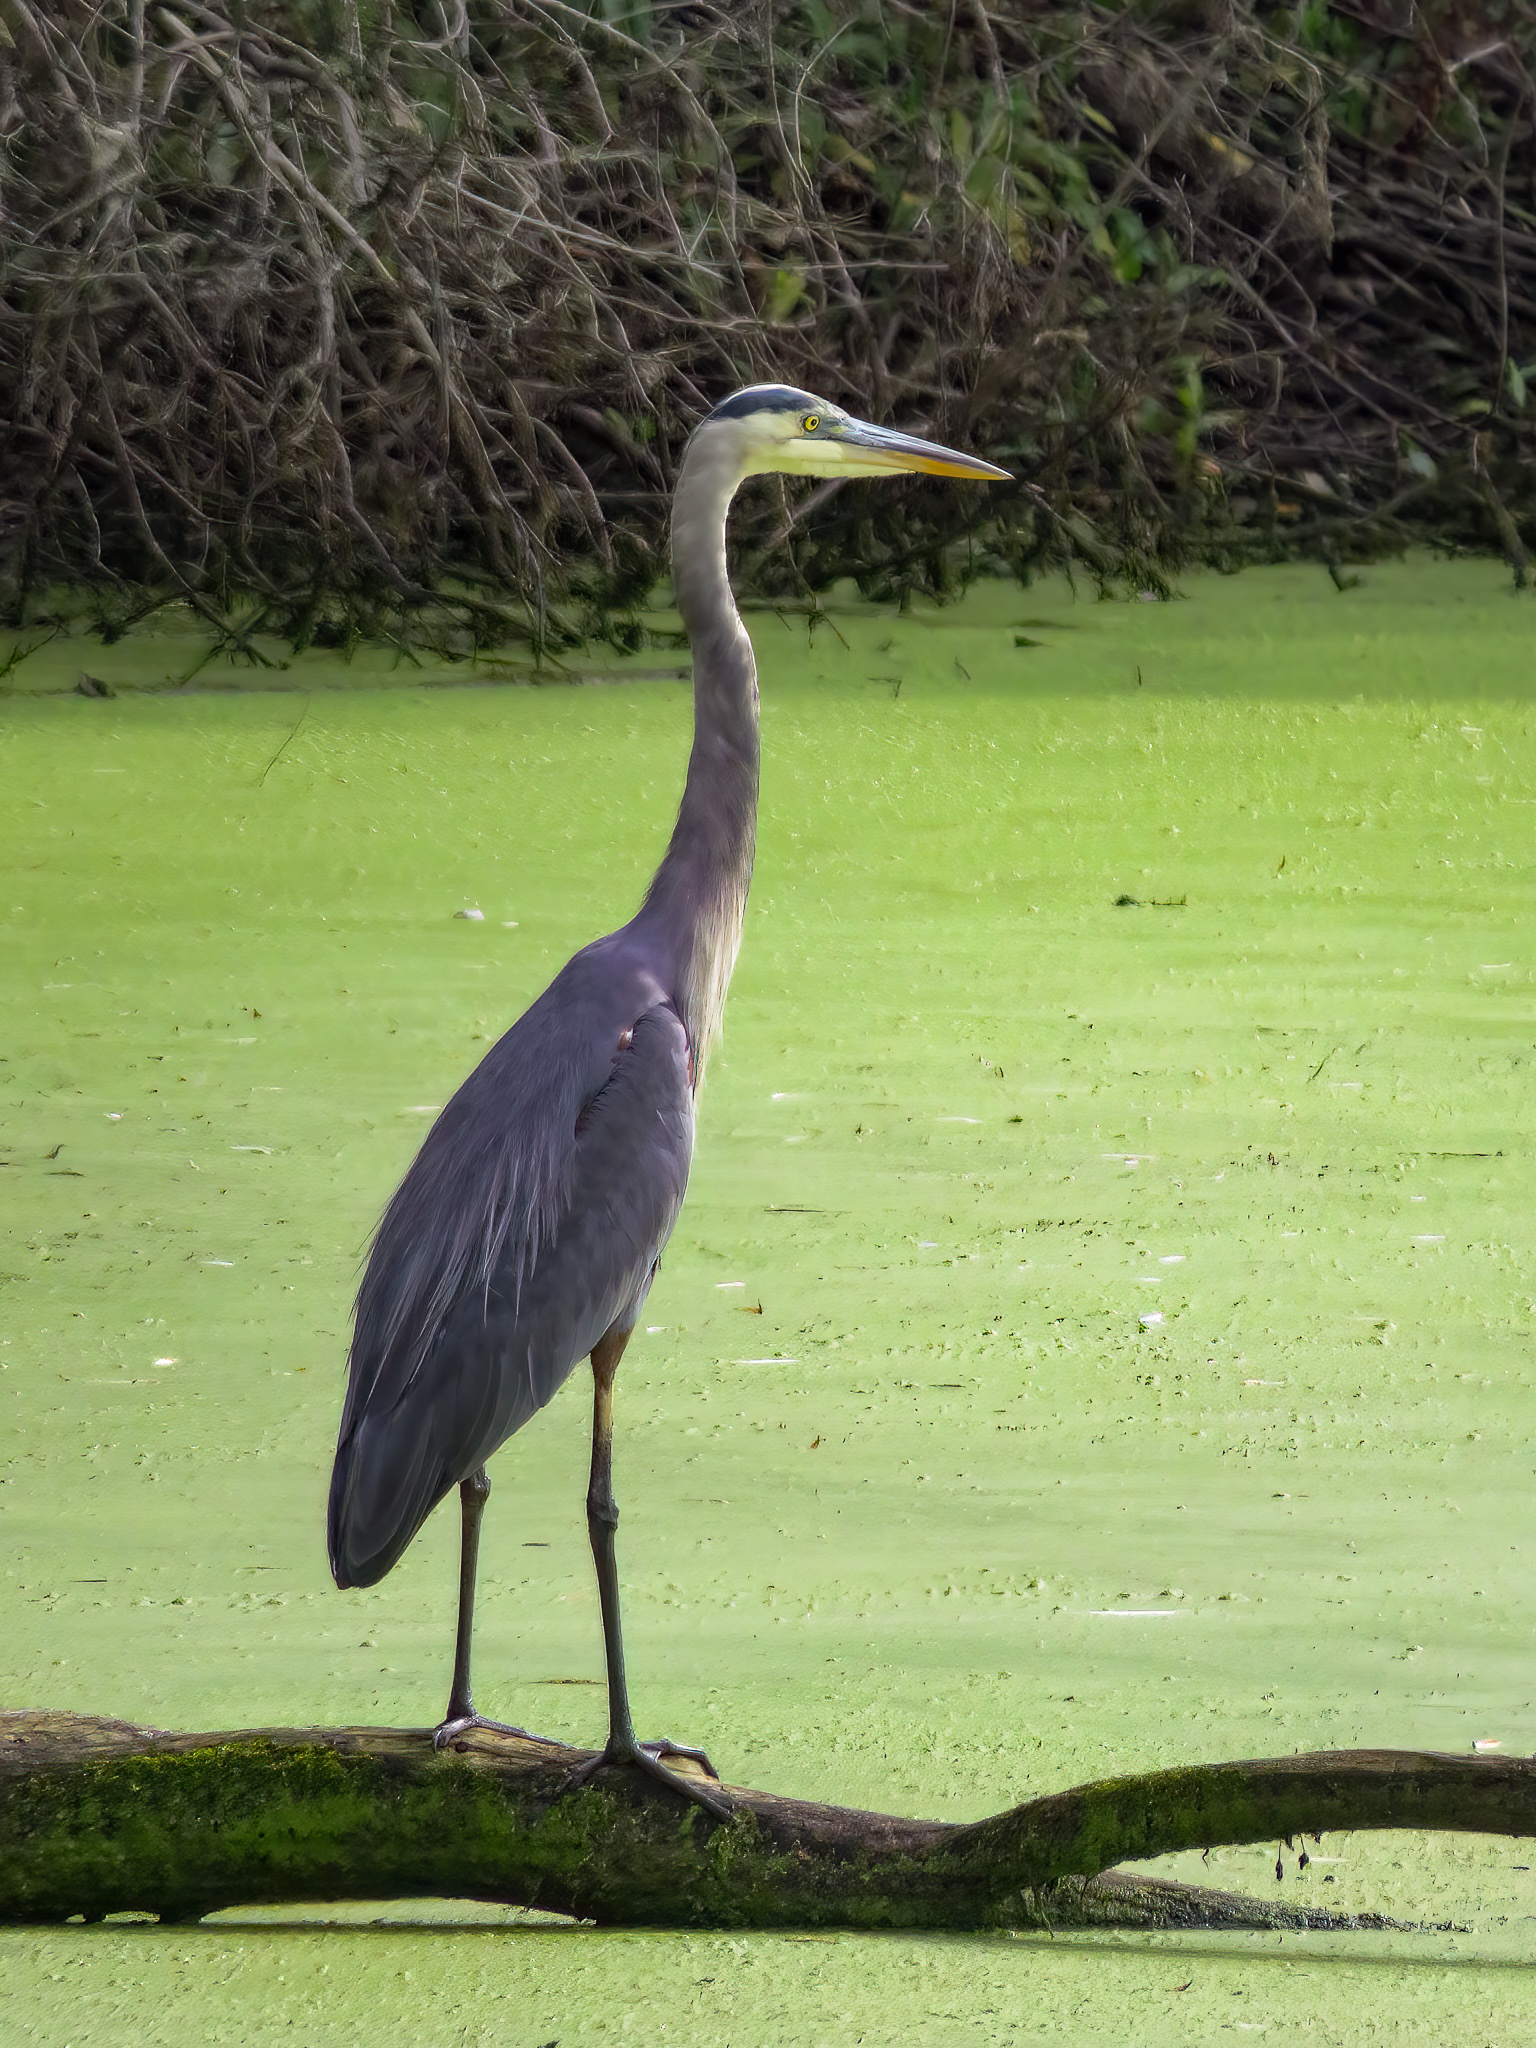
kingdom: Animalia
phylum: Chordata
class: Aves
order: Pelecaniformes
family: Ardeidae
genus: Ardea
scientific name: Ardea herodias
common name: Great blue heron
